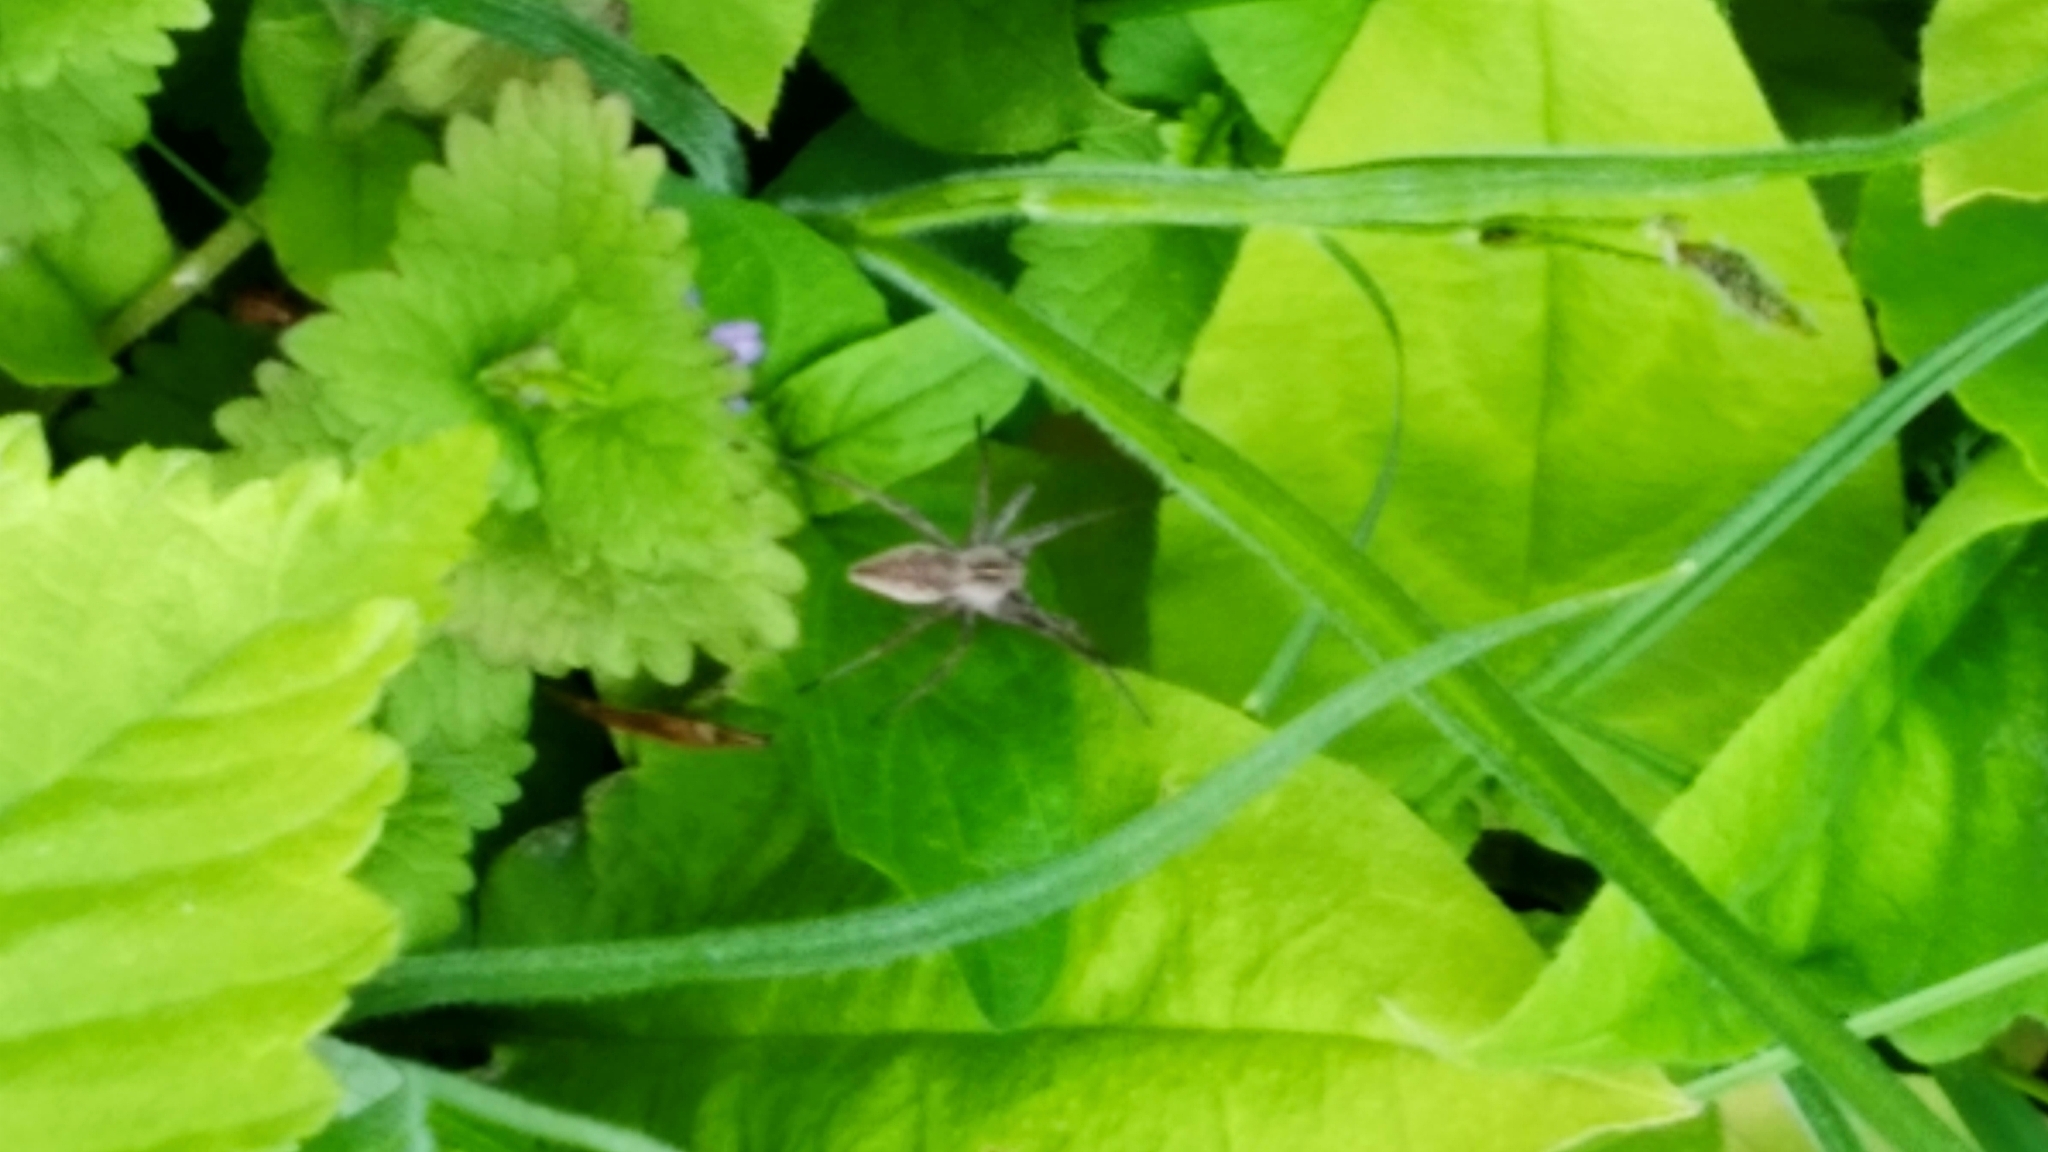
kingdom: Animalia
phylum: Arthropoda
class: Arachnida
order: Araneae
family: Pisauridae
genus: Pisaura
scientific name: Pisaura mirabilis
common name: Tent spider
